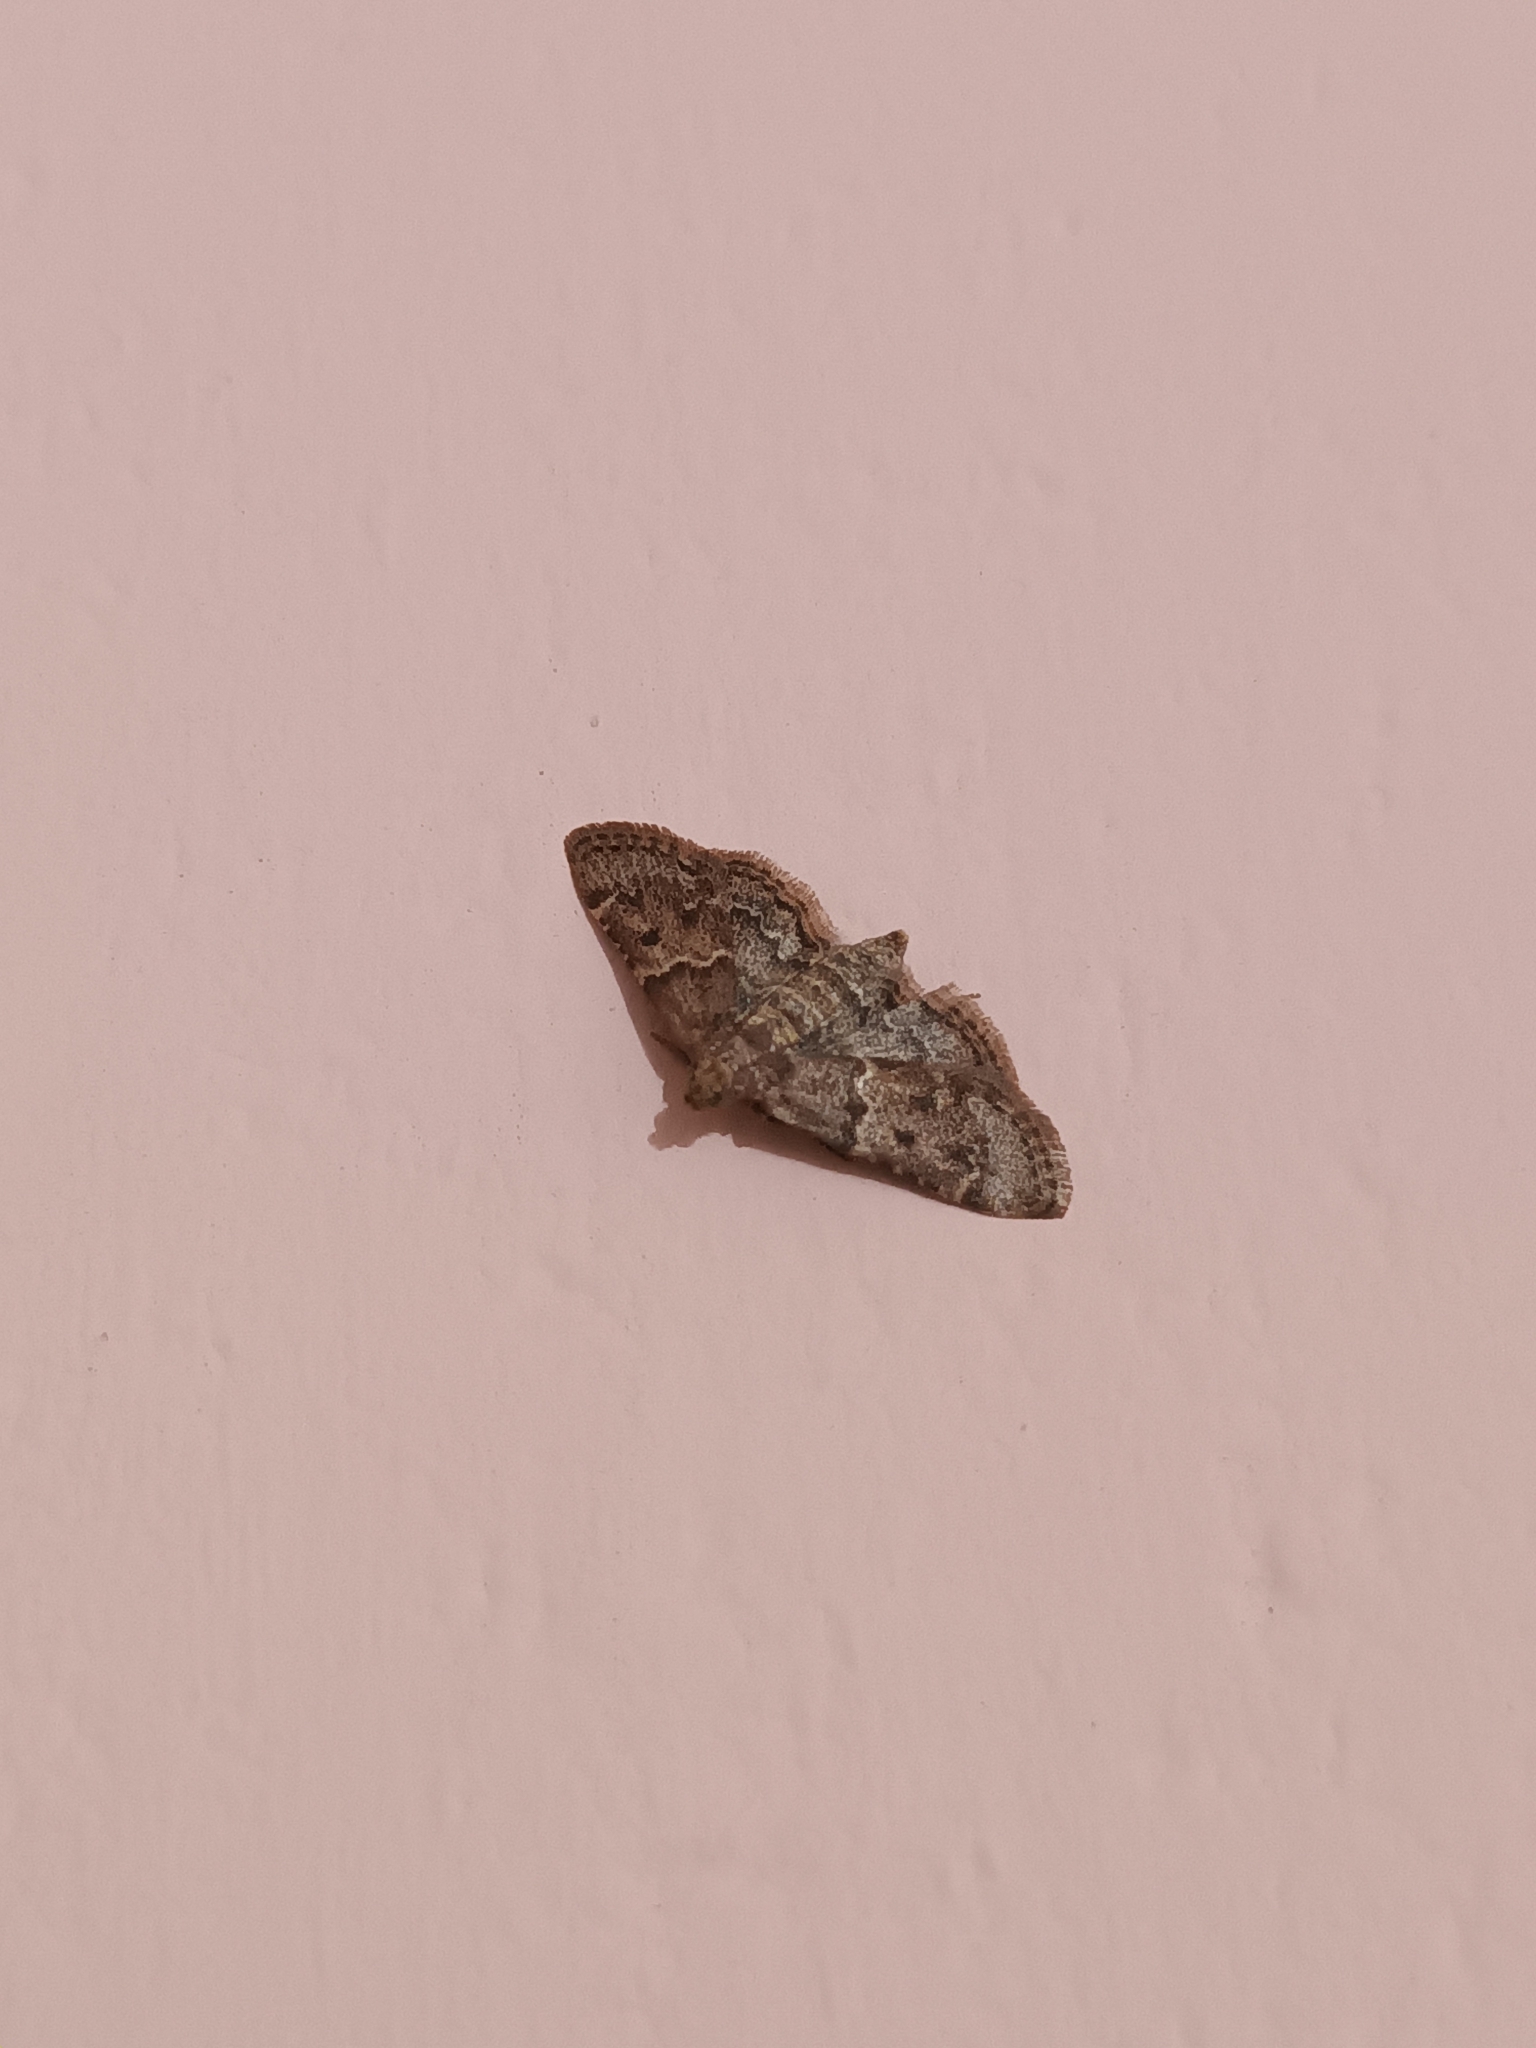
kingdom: Animalia
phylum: Arthropoda
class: Insecta
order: Lepidoptera
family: Pyralidae
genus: Pyralis
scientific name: Pyralis manihotalis
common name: Moth
